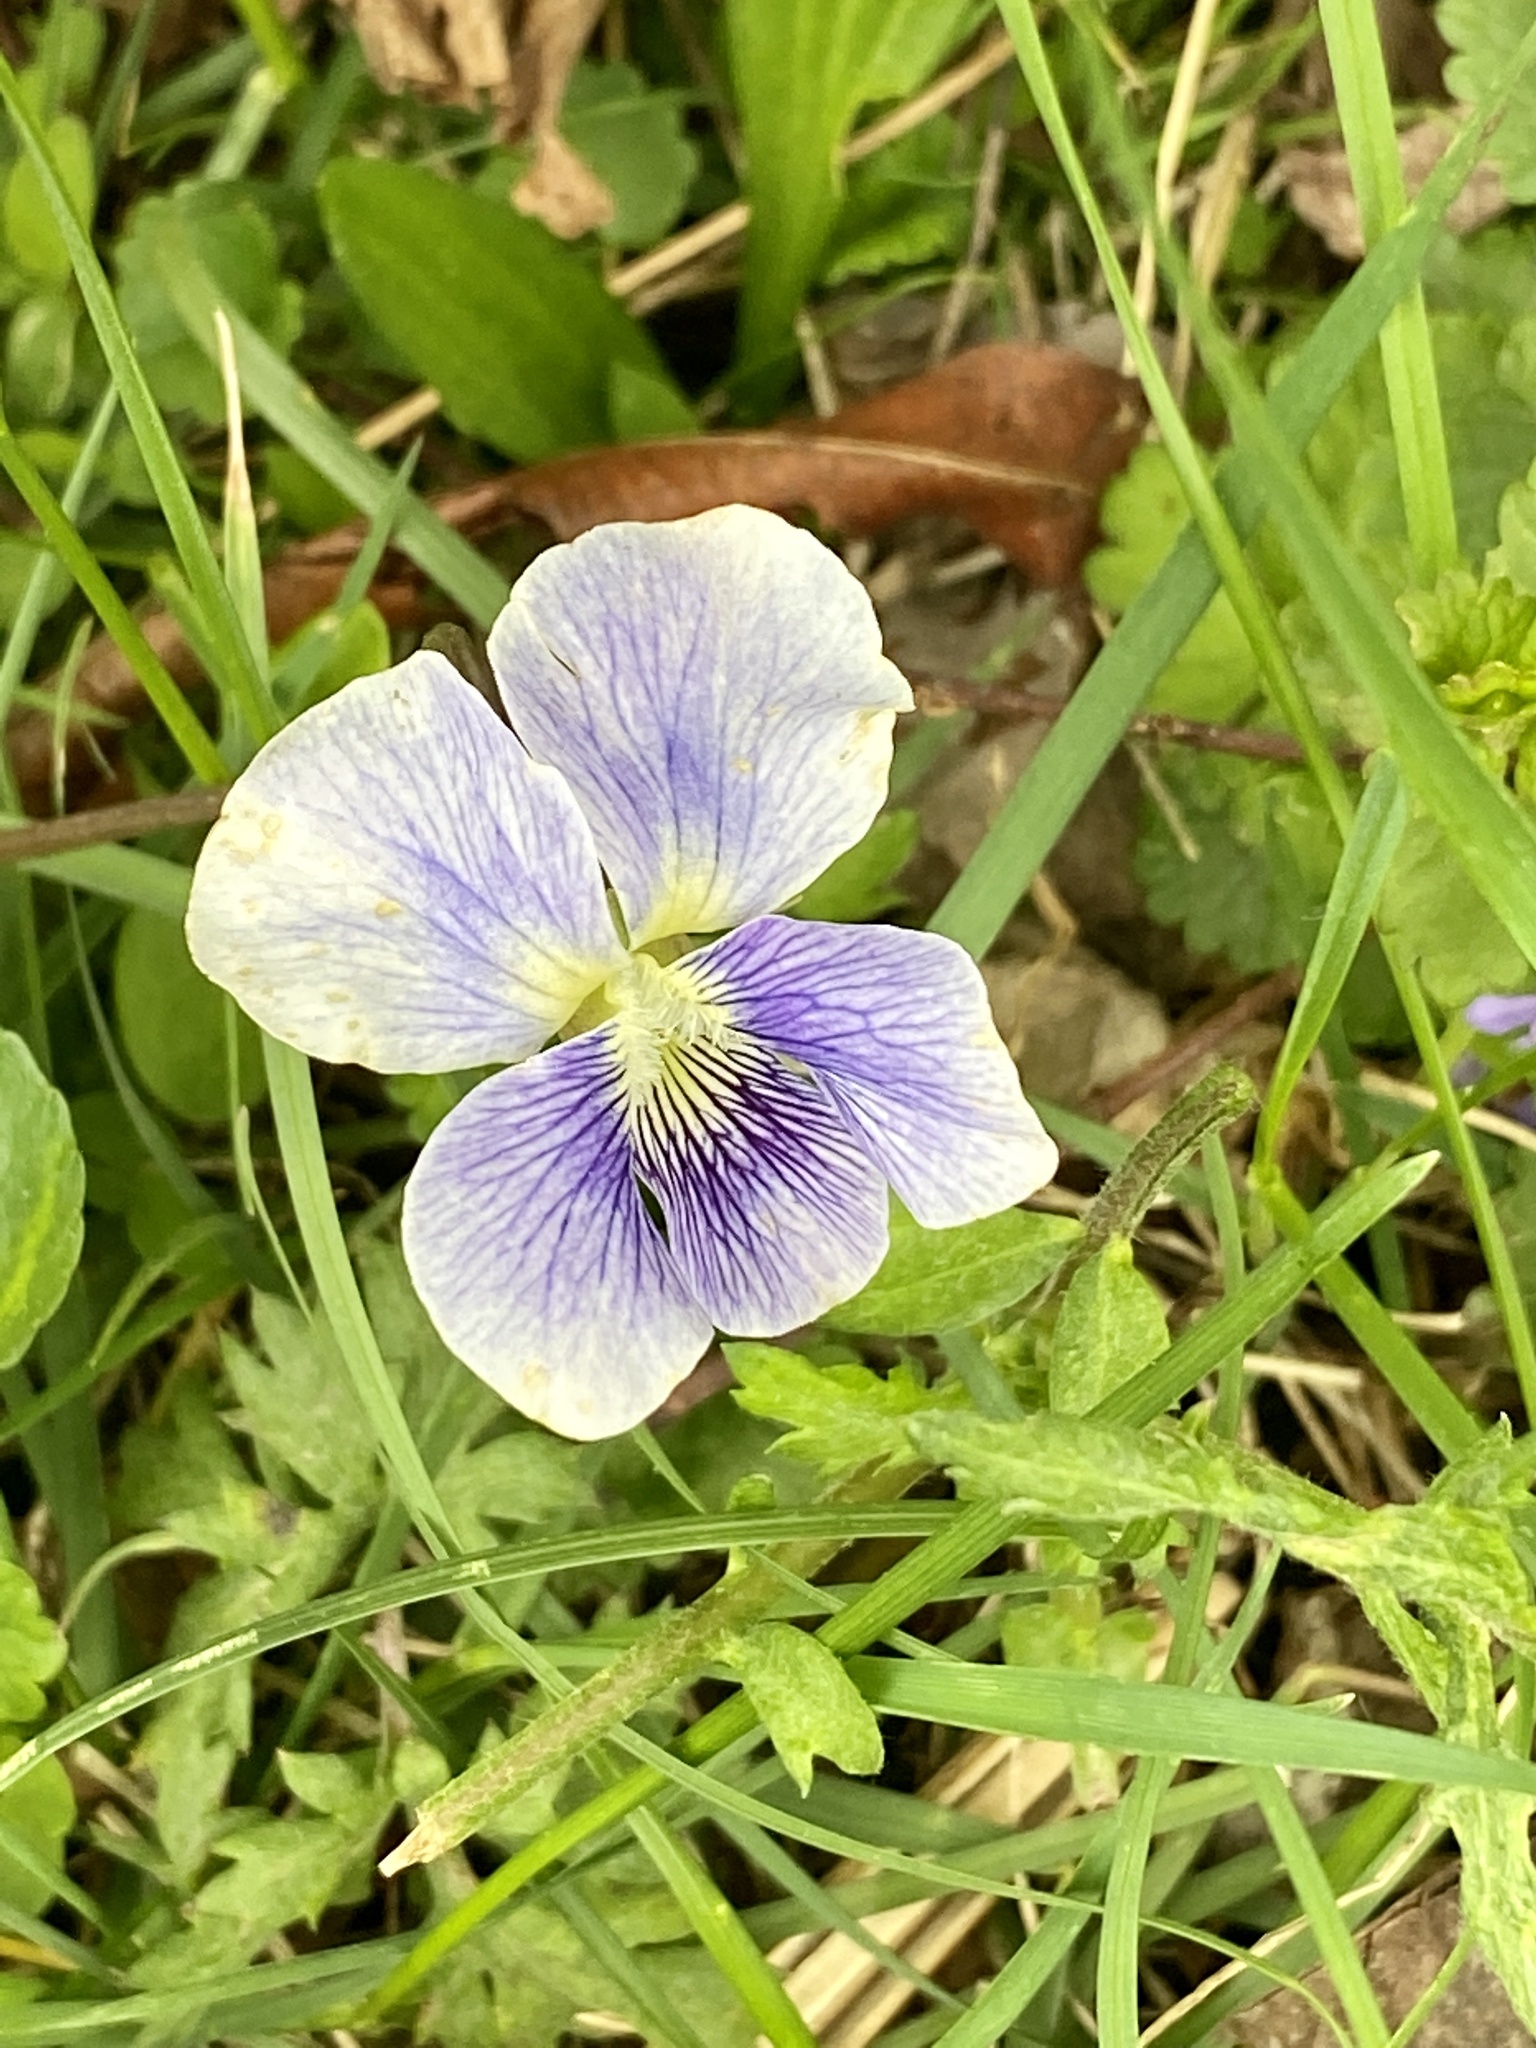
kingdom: Plantae
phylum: Tracheophyta
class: Magnoliopsida
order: Malpighiales
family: Violaceae
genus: Viola
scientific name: Viola sororia
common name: Dooryard violet
